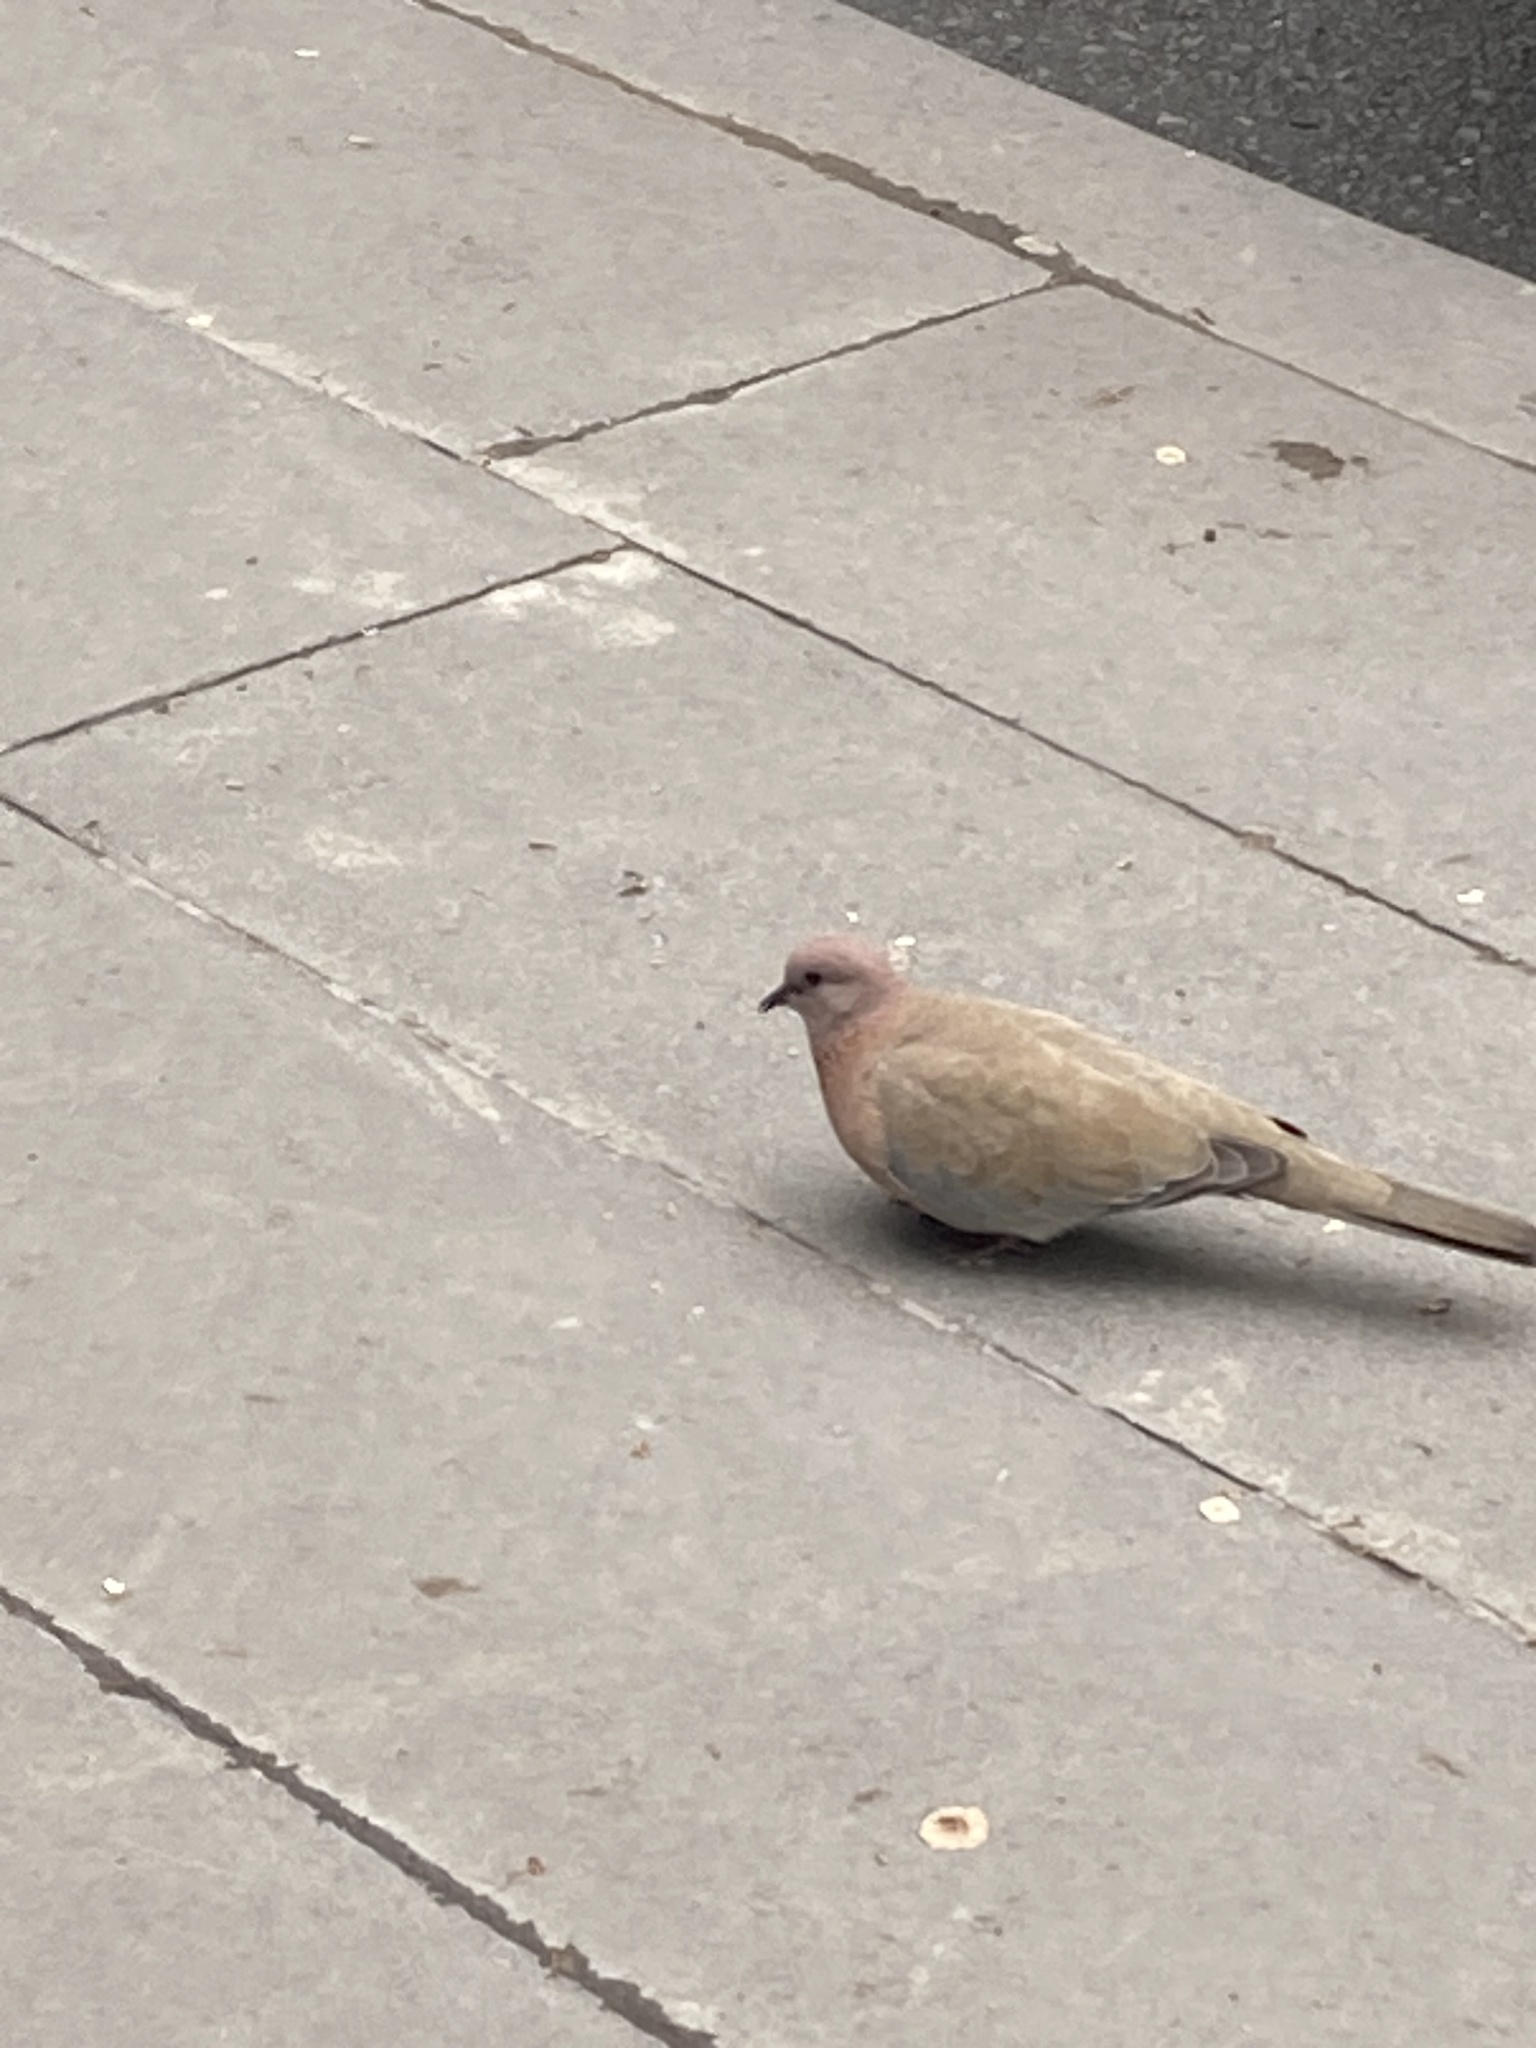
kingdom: Animalia
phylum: Chordata
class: Aves
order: Columbiformes
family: Columbidae
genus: Spilopelia
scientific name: Spilopelia senegalensis
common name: Laughing dove
